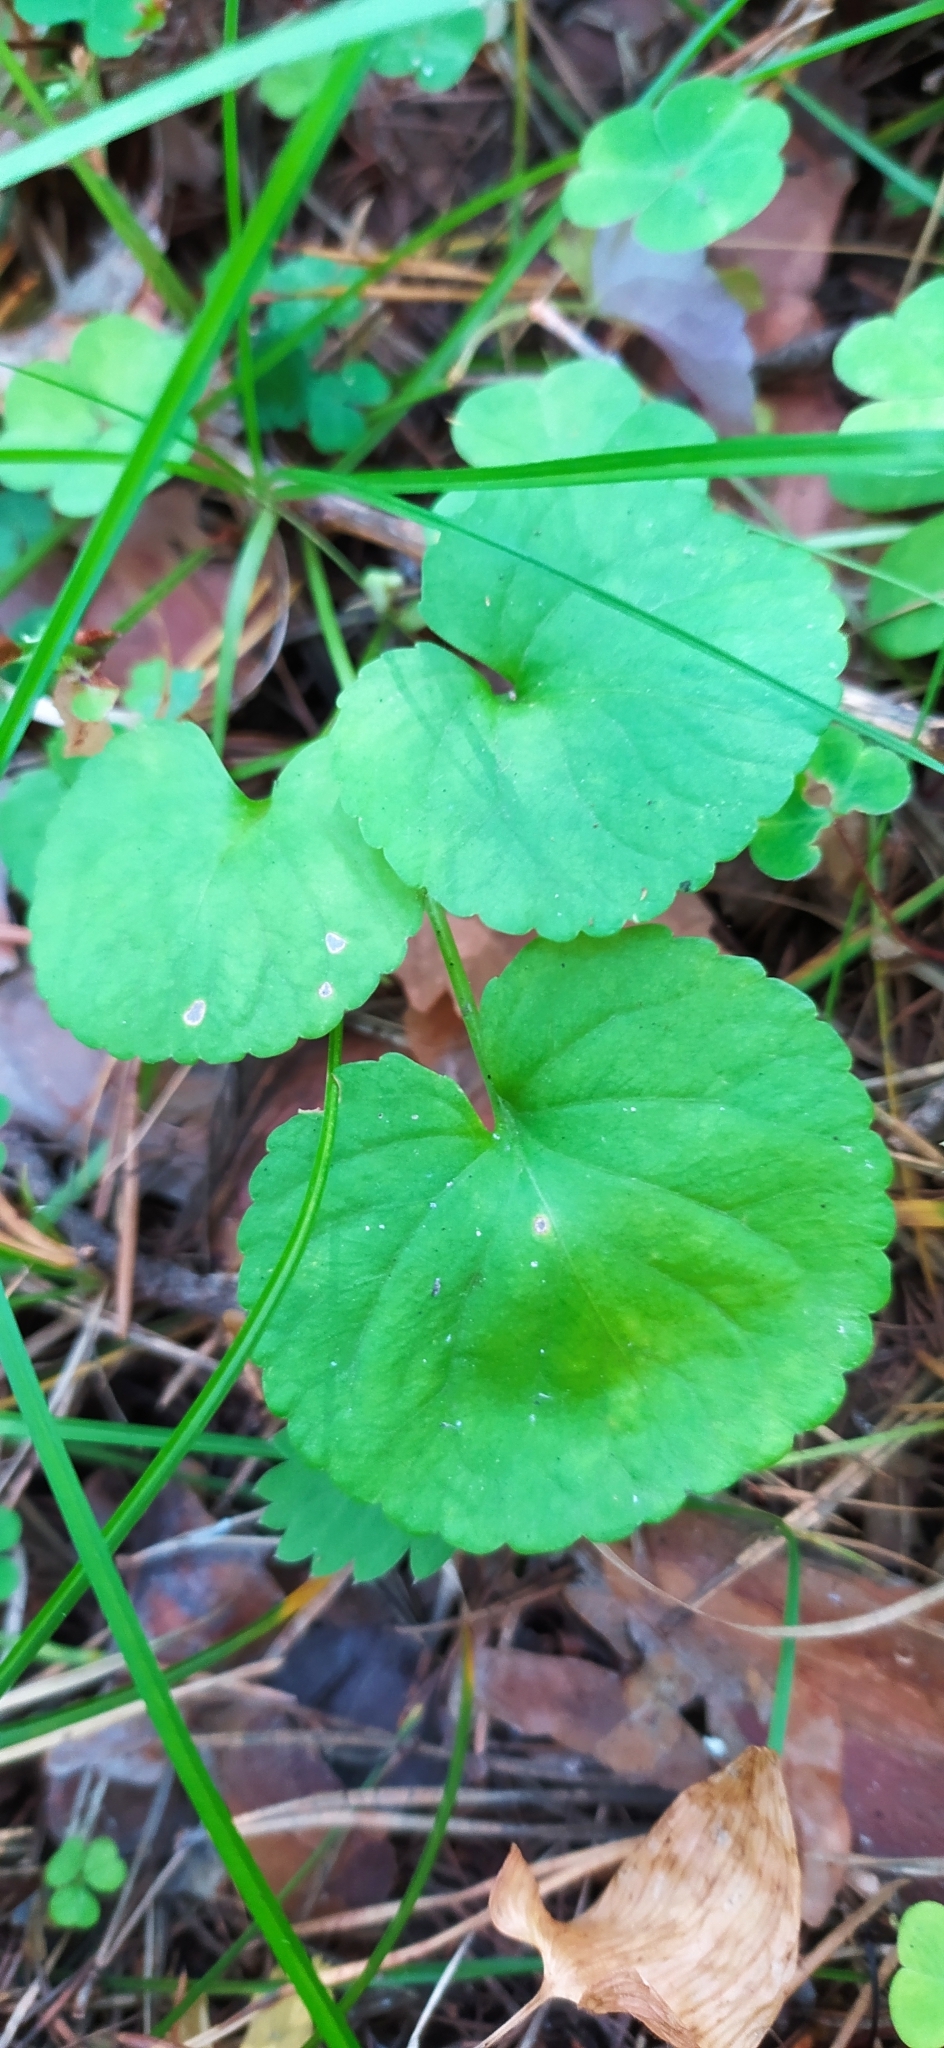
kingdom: Plantae
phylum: Tracheophyta
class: Magnoliopsida
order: Malpighiales
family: Violaceae
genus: Viola
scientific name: Viola mirabilis
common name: Wonder violet
